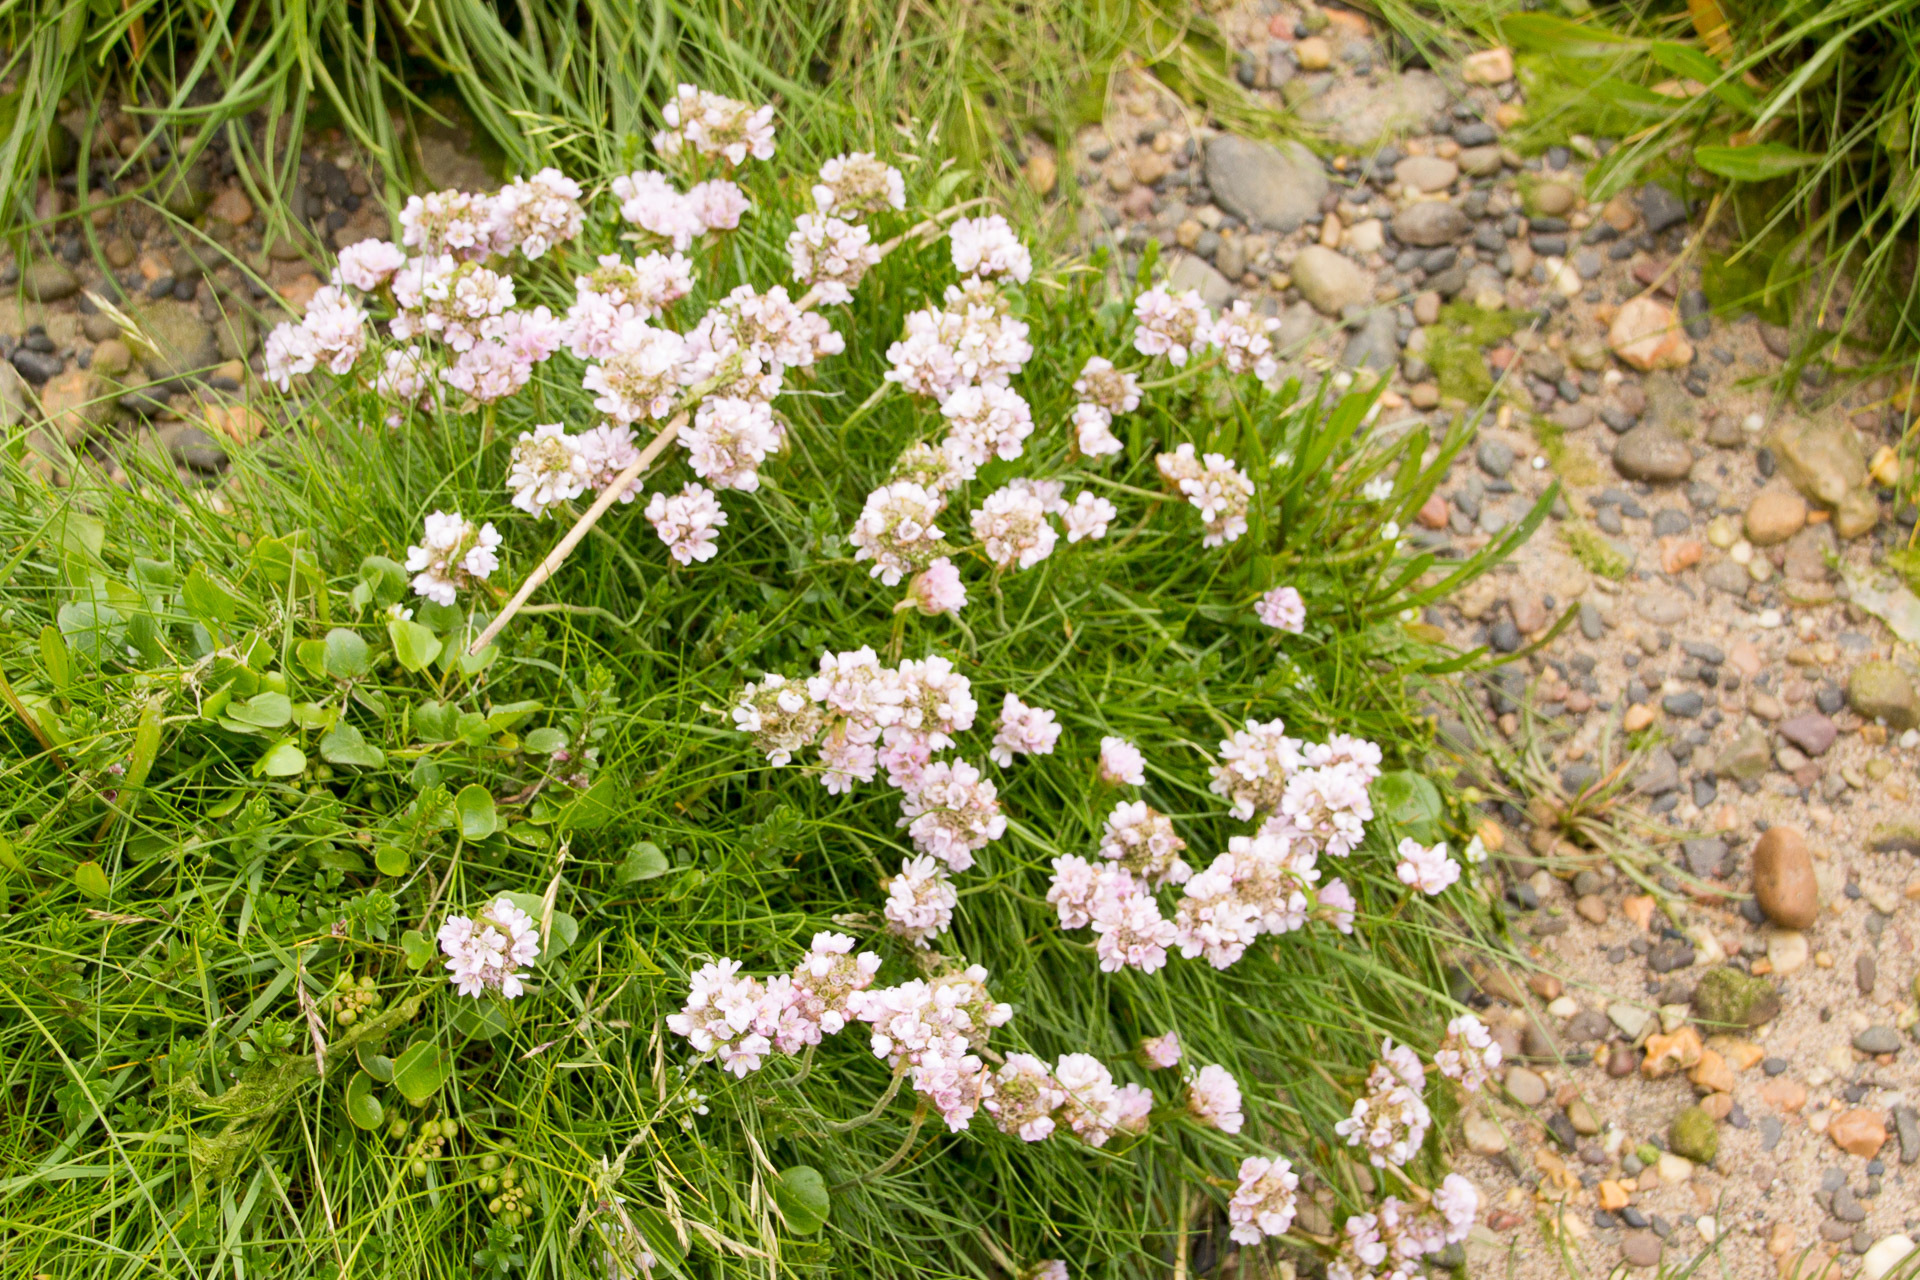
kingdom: Plantae
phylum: Tracheophyta
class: Magnoliopsida
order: Caryophyllales
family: Plumbaginaceae
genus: Armeria
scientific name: Armeria maritima
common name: Thrift
